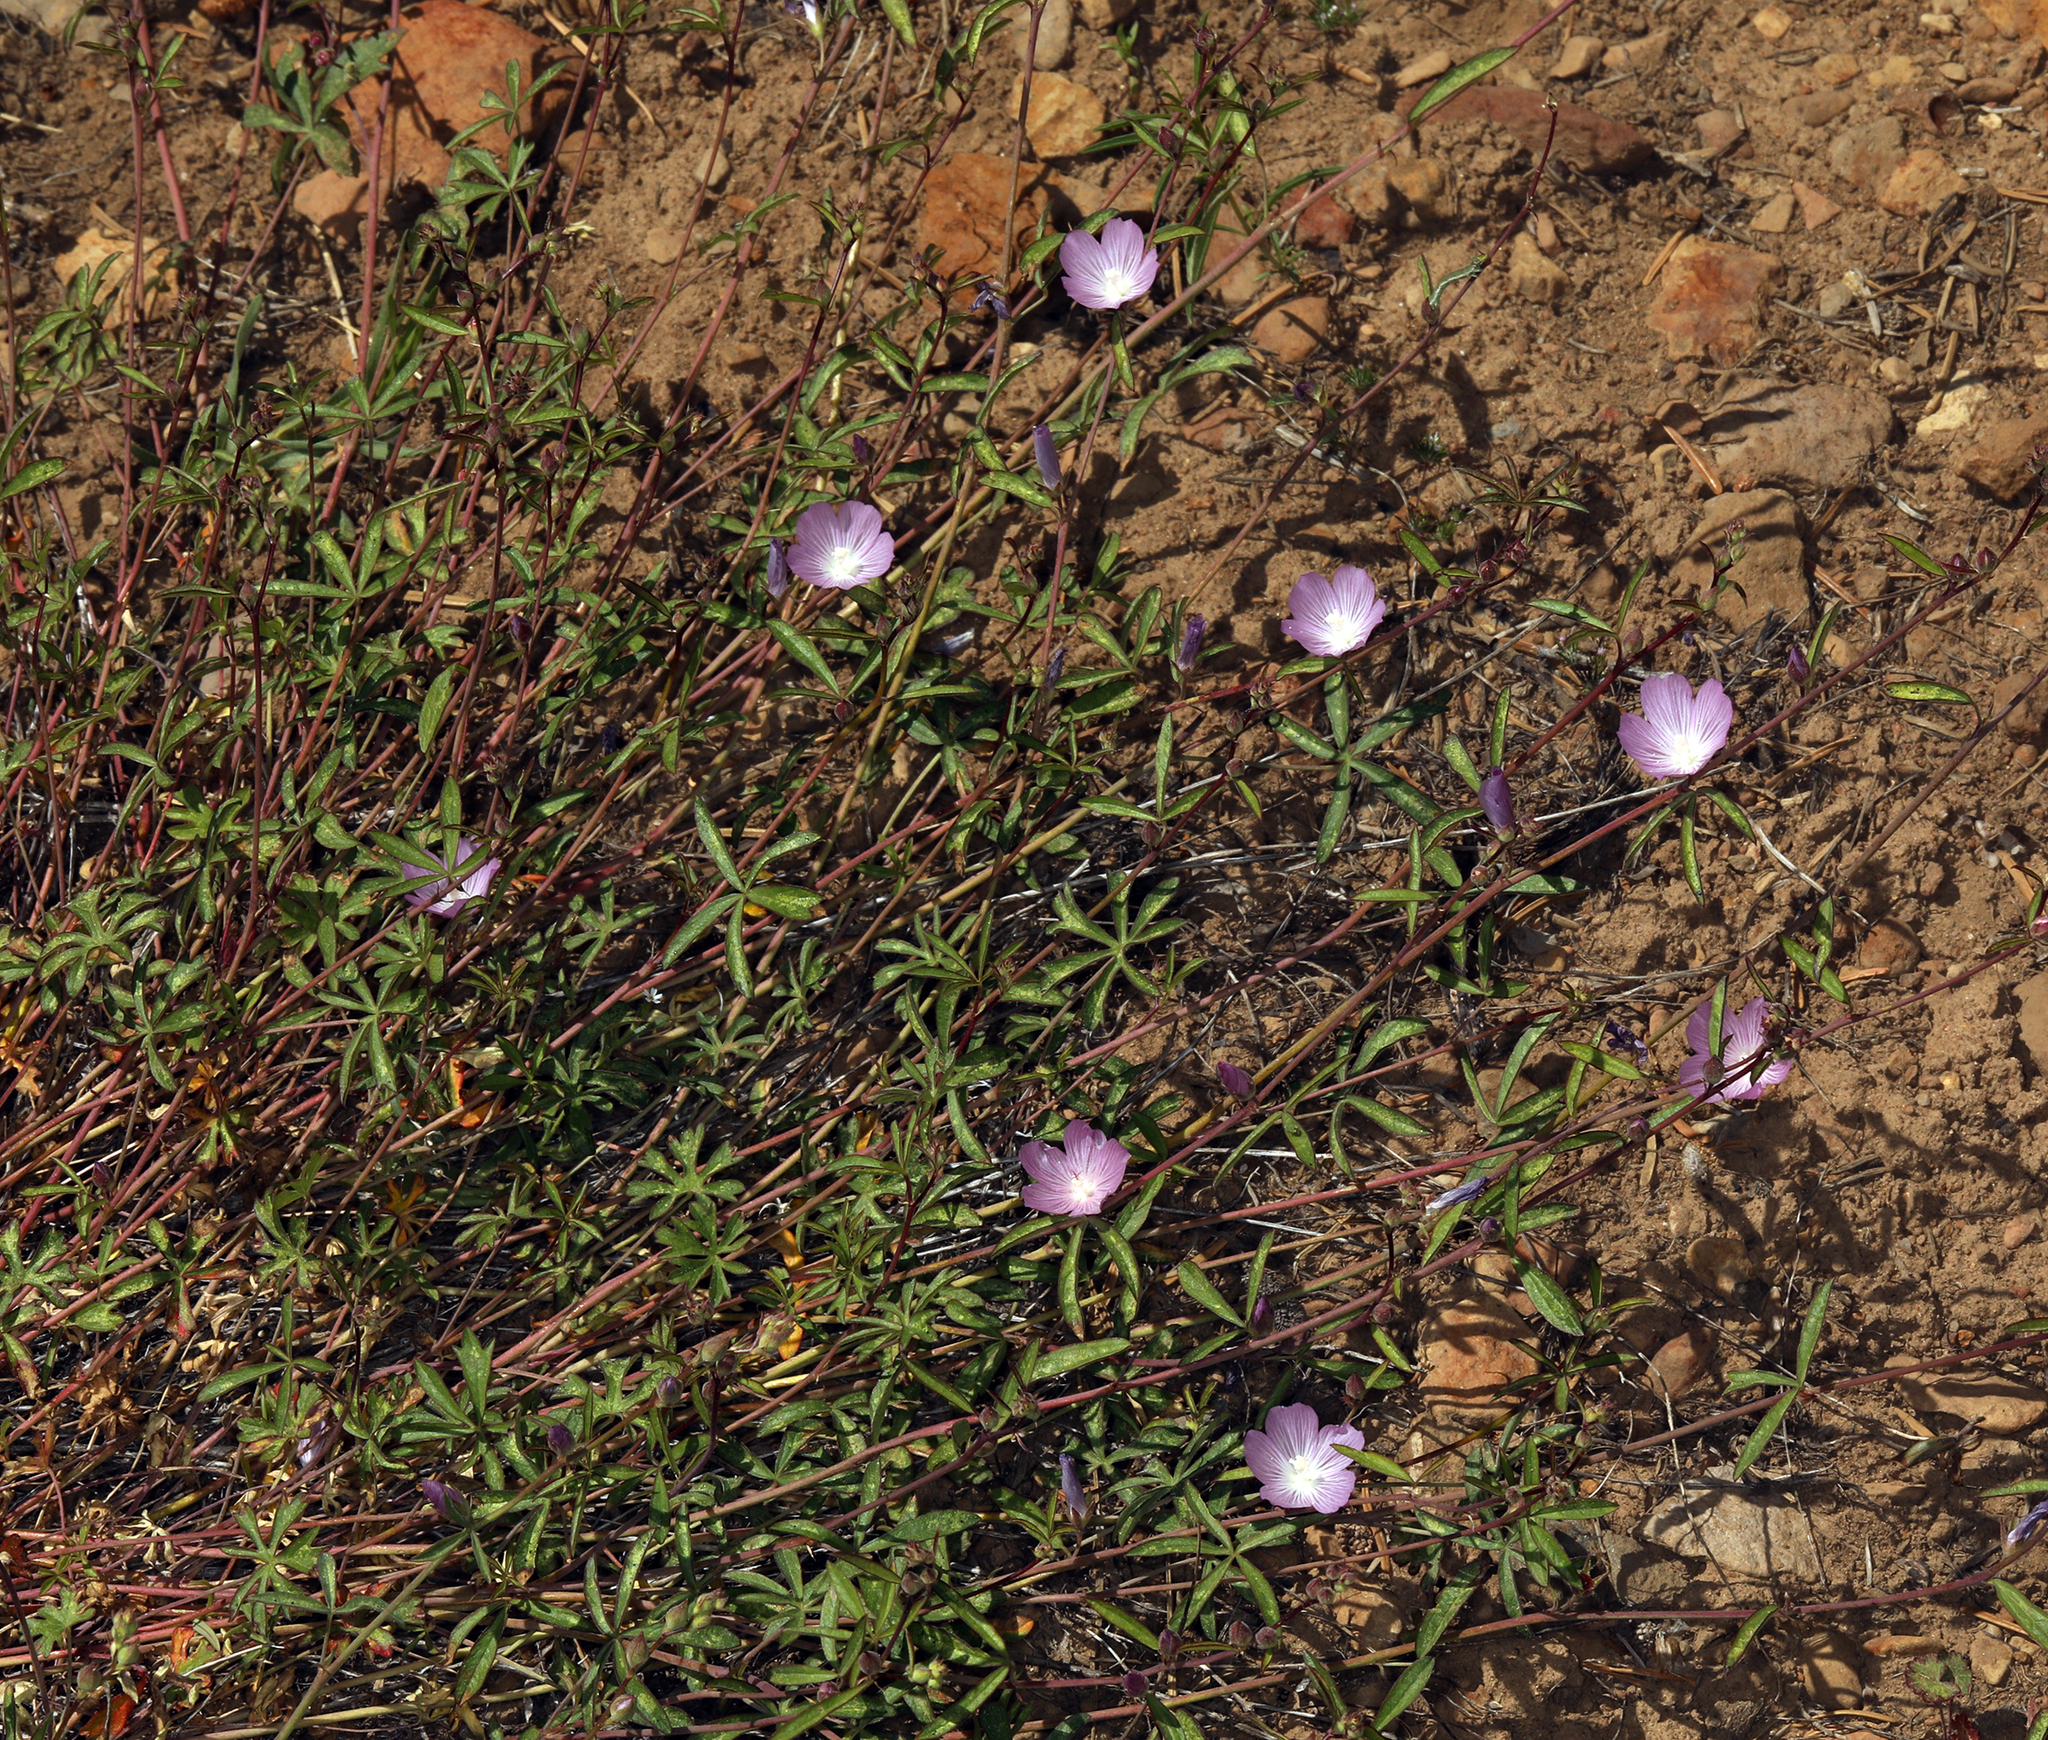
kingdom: Plantae
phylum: Tracheophyta
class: Magnoliopsida
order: Malvales
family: Malvaceae
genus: Sidalcea
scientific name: Sidalcea glaucescens
